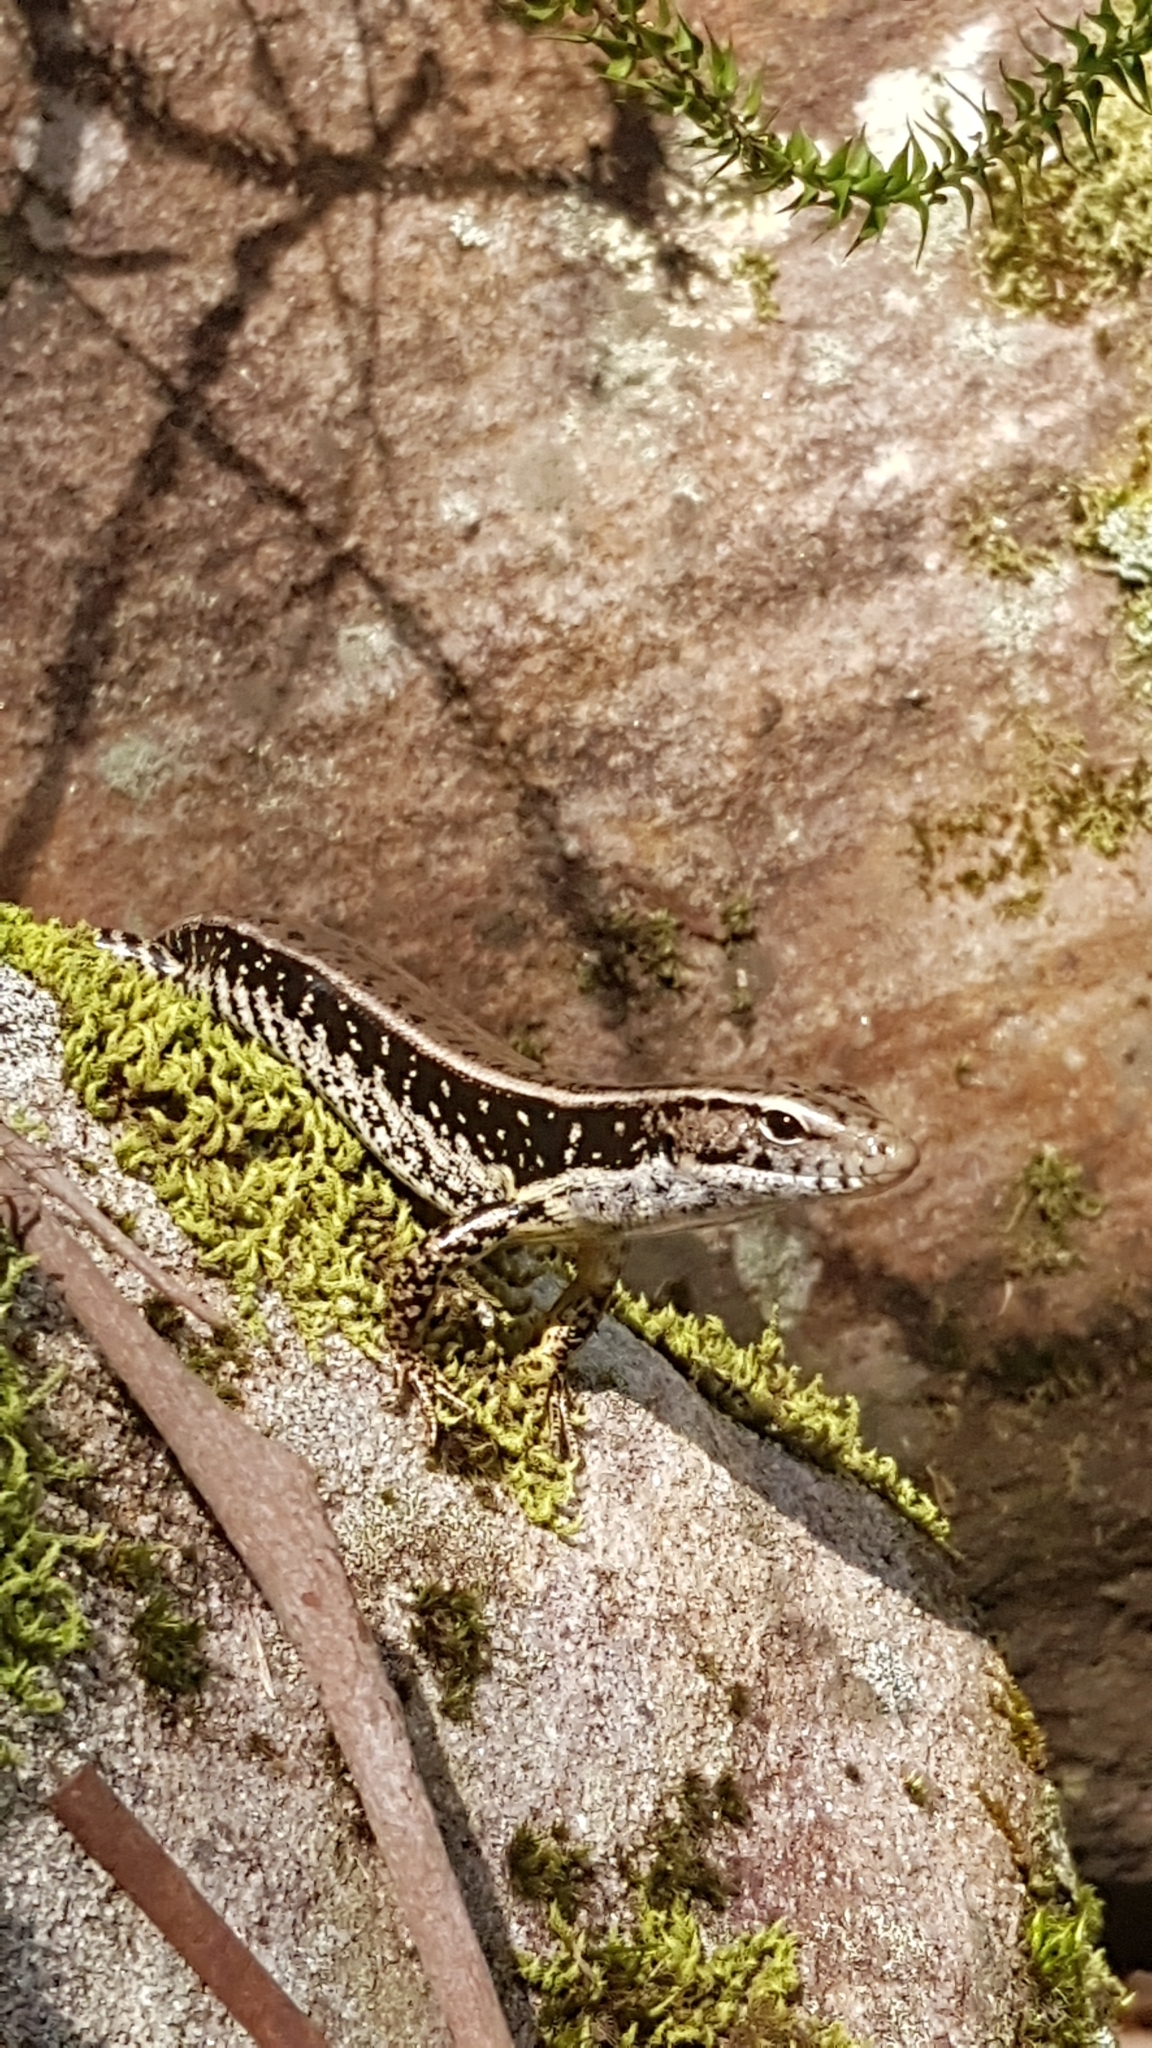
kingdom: Animalia
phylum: Chordata
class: Squamata
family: Scincidae
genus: Eulamprus
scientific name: Eulamprus quoyii
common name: Eastern water skink
